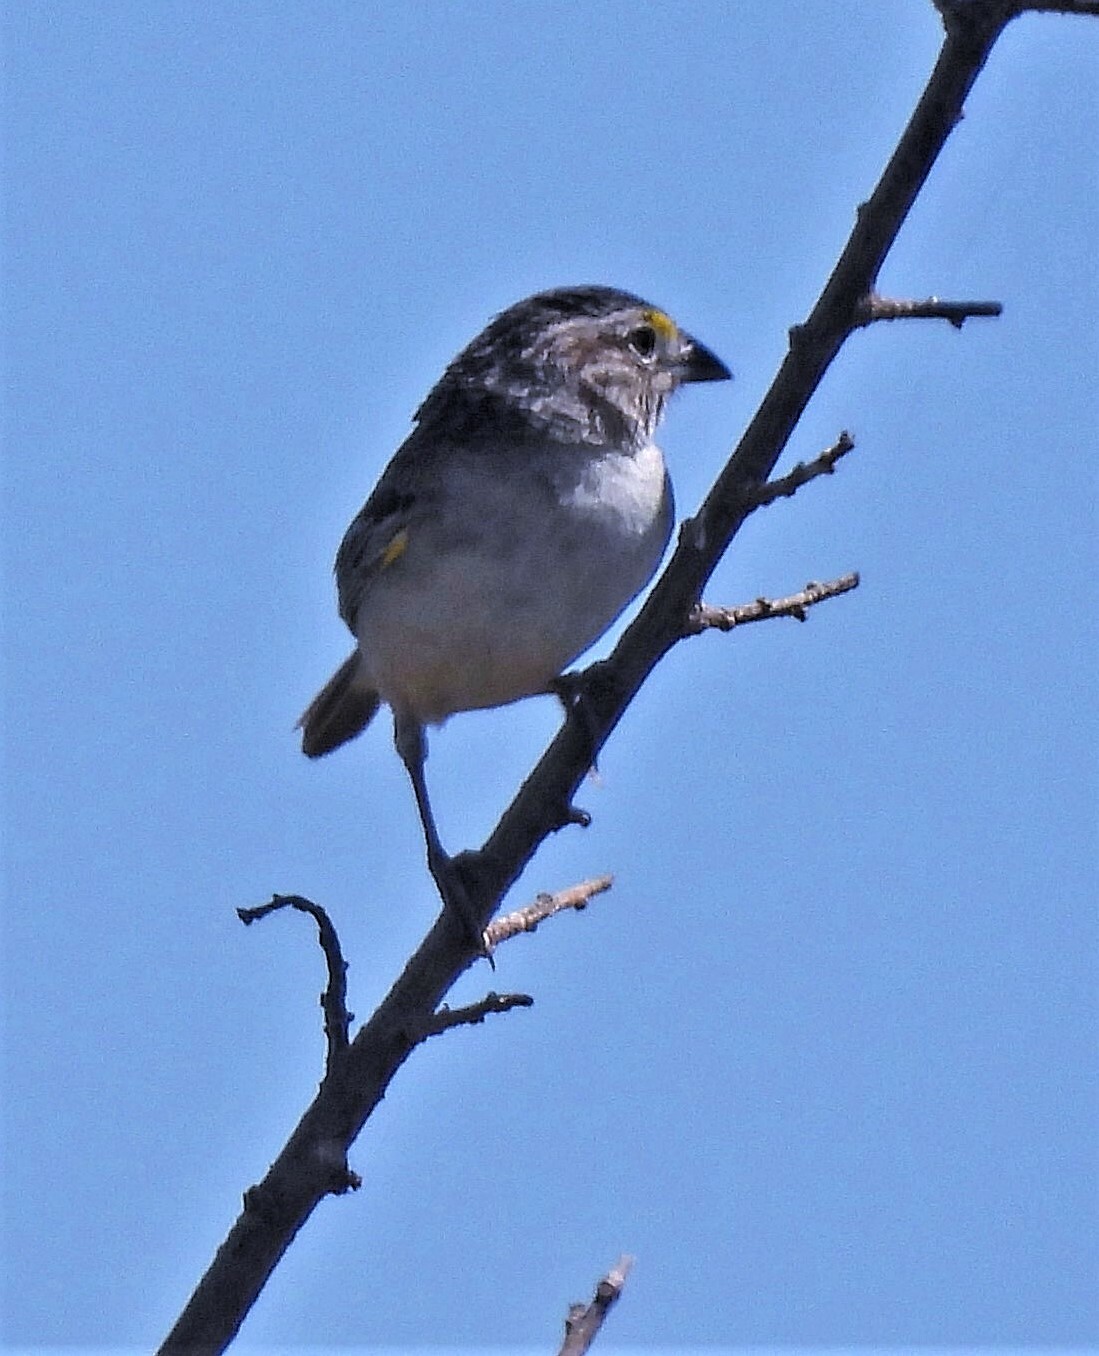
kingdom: Animalia
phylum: Chordata
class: Aves
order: Passeriformes
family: Passerellidae
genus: Ammodramus
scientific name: Ammodramus humeralis
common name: Grassland sparrow
